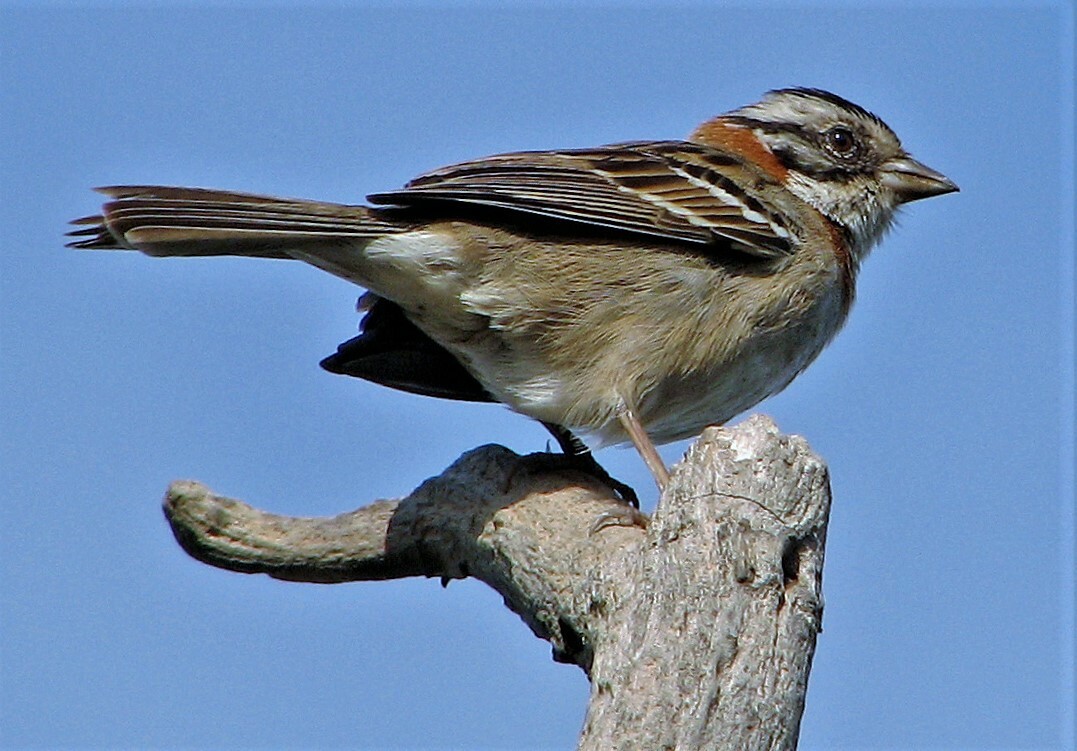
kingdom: Animalia
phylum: Chordata
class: Aves
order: Passeriformes
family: Passerellidae
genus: Zonotrichia
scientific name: Zonotrichia capensis
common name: Rufous-collared sparrow
